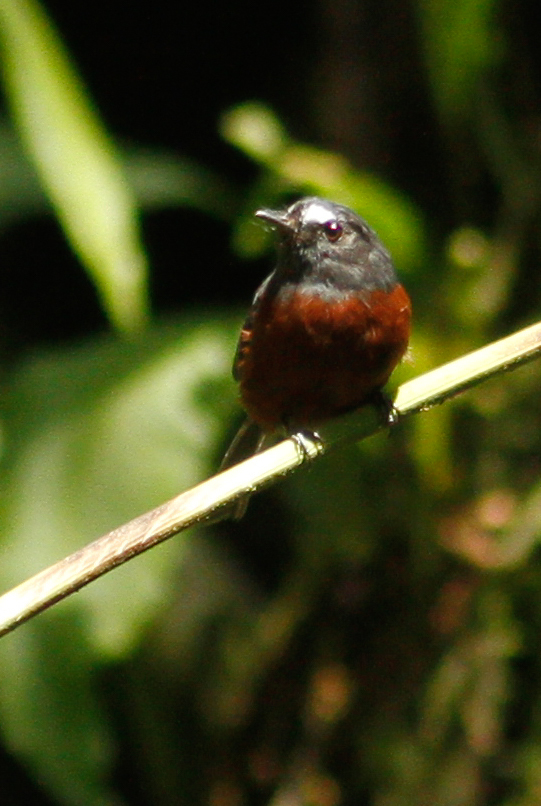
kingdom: Animalia
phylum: Chordata
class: Aves
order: Passeriformes
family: Tyrannidae
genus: Ochthoeca
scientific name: Ochthoeca cinnamomeiventris
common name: Slaty-backed chat-tyrant
